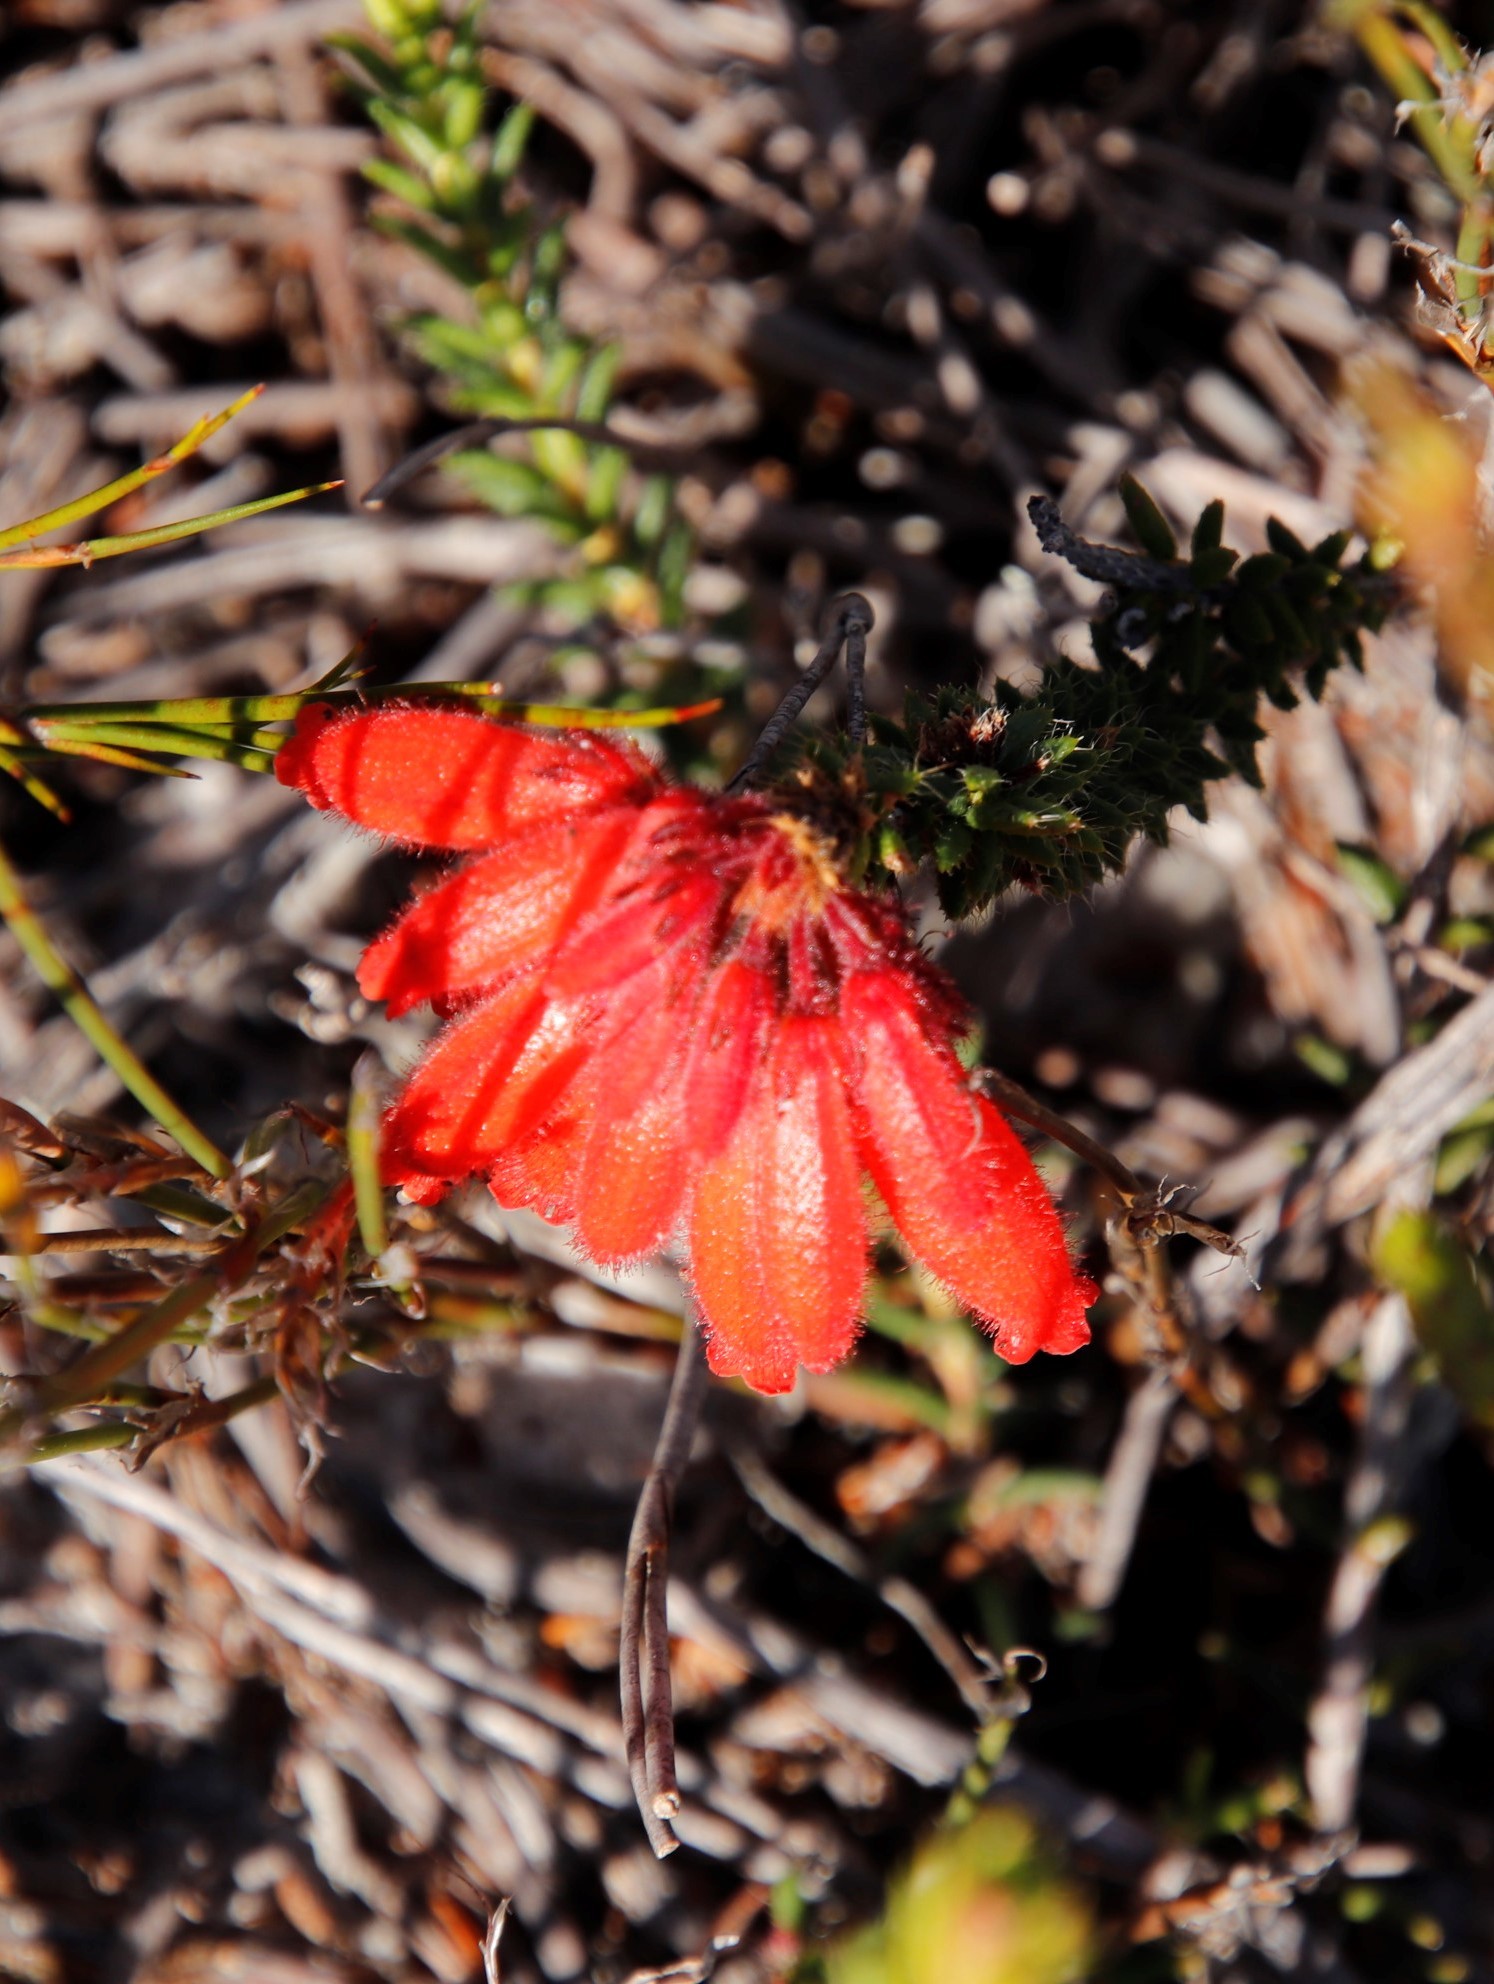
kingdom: Plantae
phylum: Tracheophyta
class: Magnoliopsida
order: Ericales
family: Ericaceae
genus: Erica
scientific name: Erica cerinthoides
